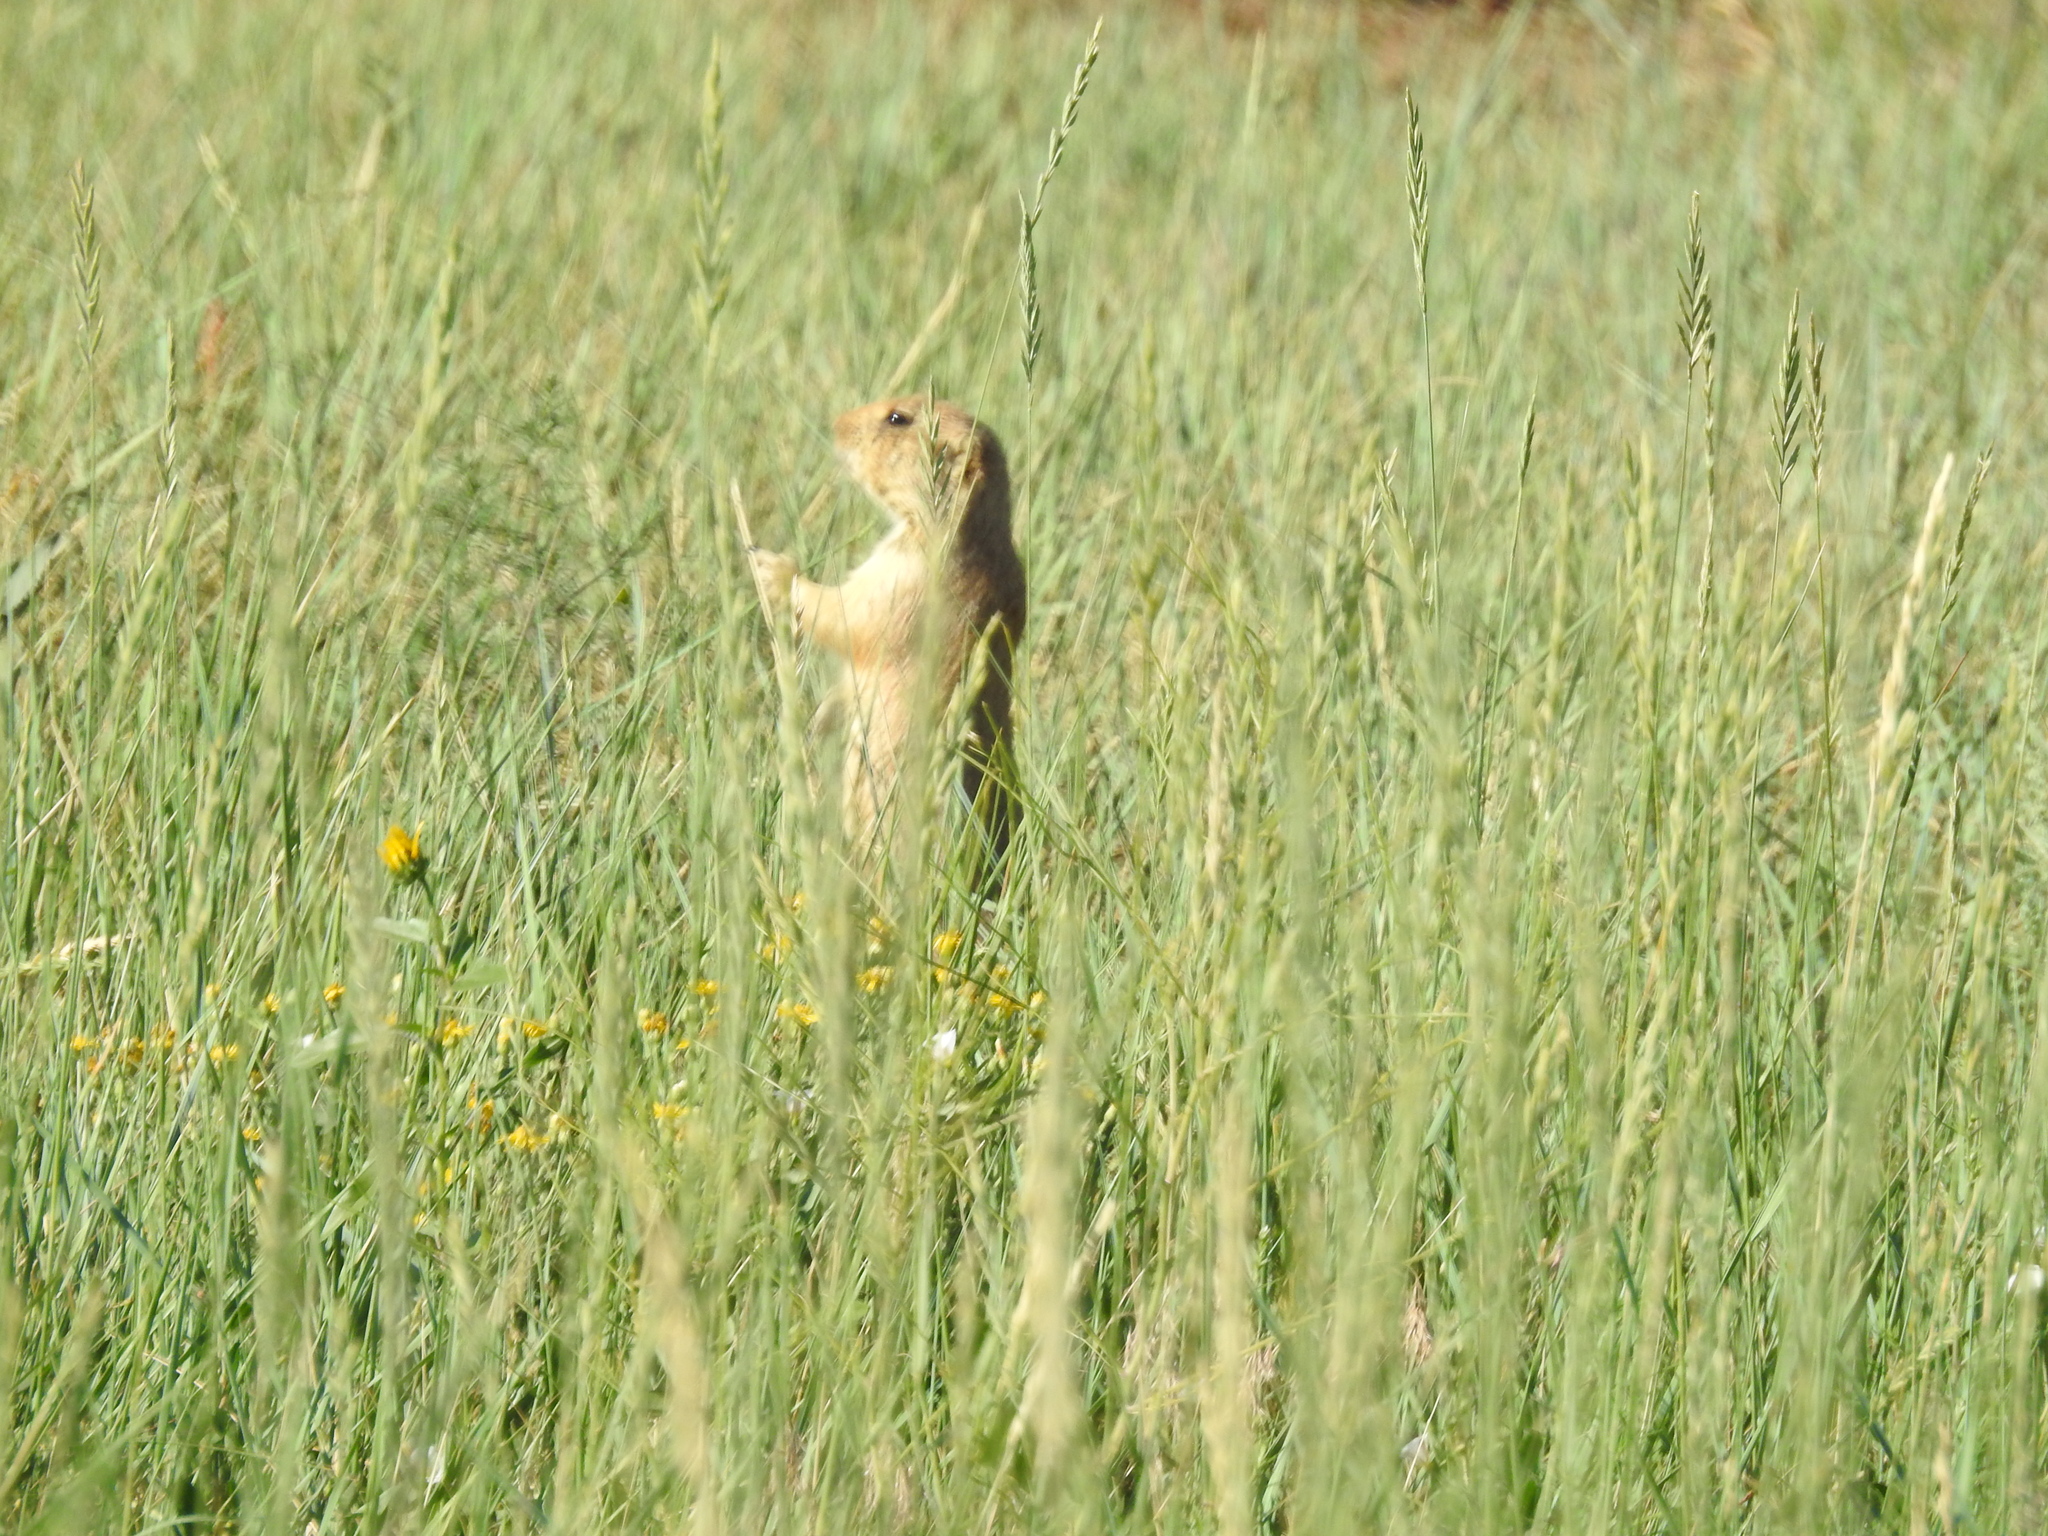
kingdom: Animalia
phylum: Chordata
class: Mammalia
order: Rodentia
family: Sciuridae
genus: Cynomys
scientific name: Cynomys ludovicianus
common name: Black-tailed prairie dog
